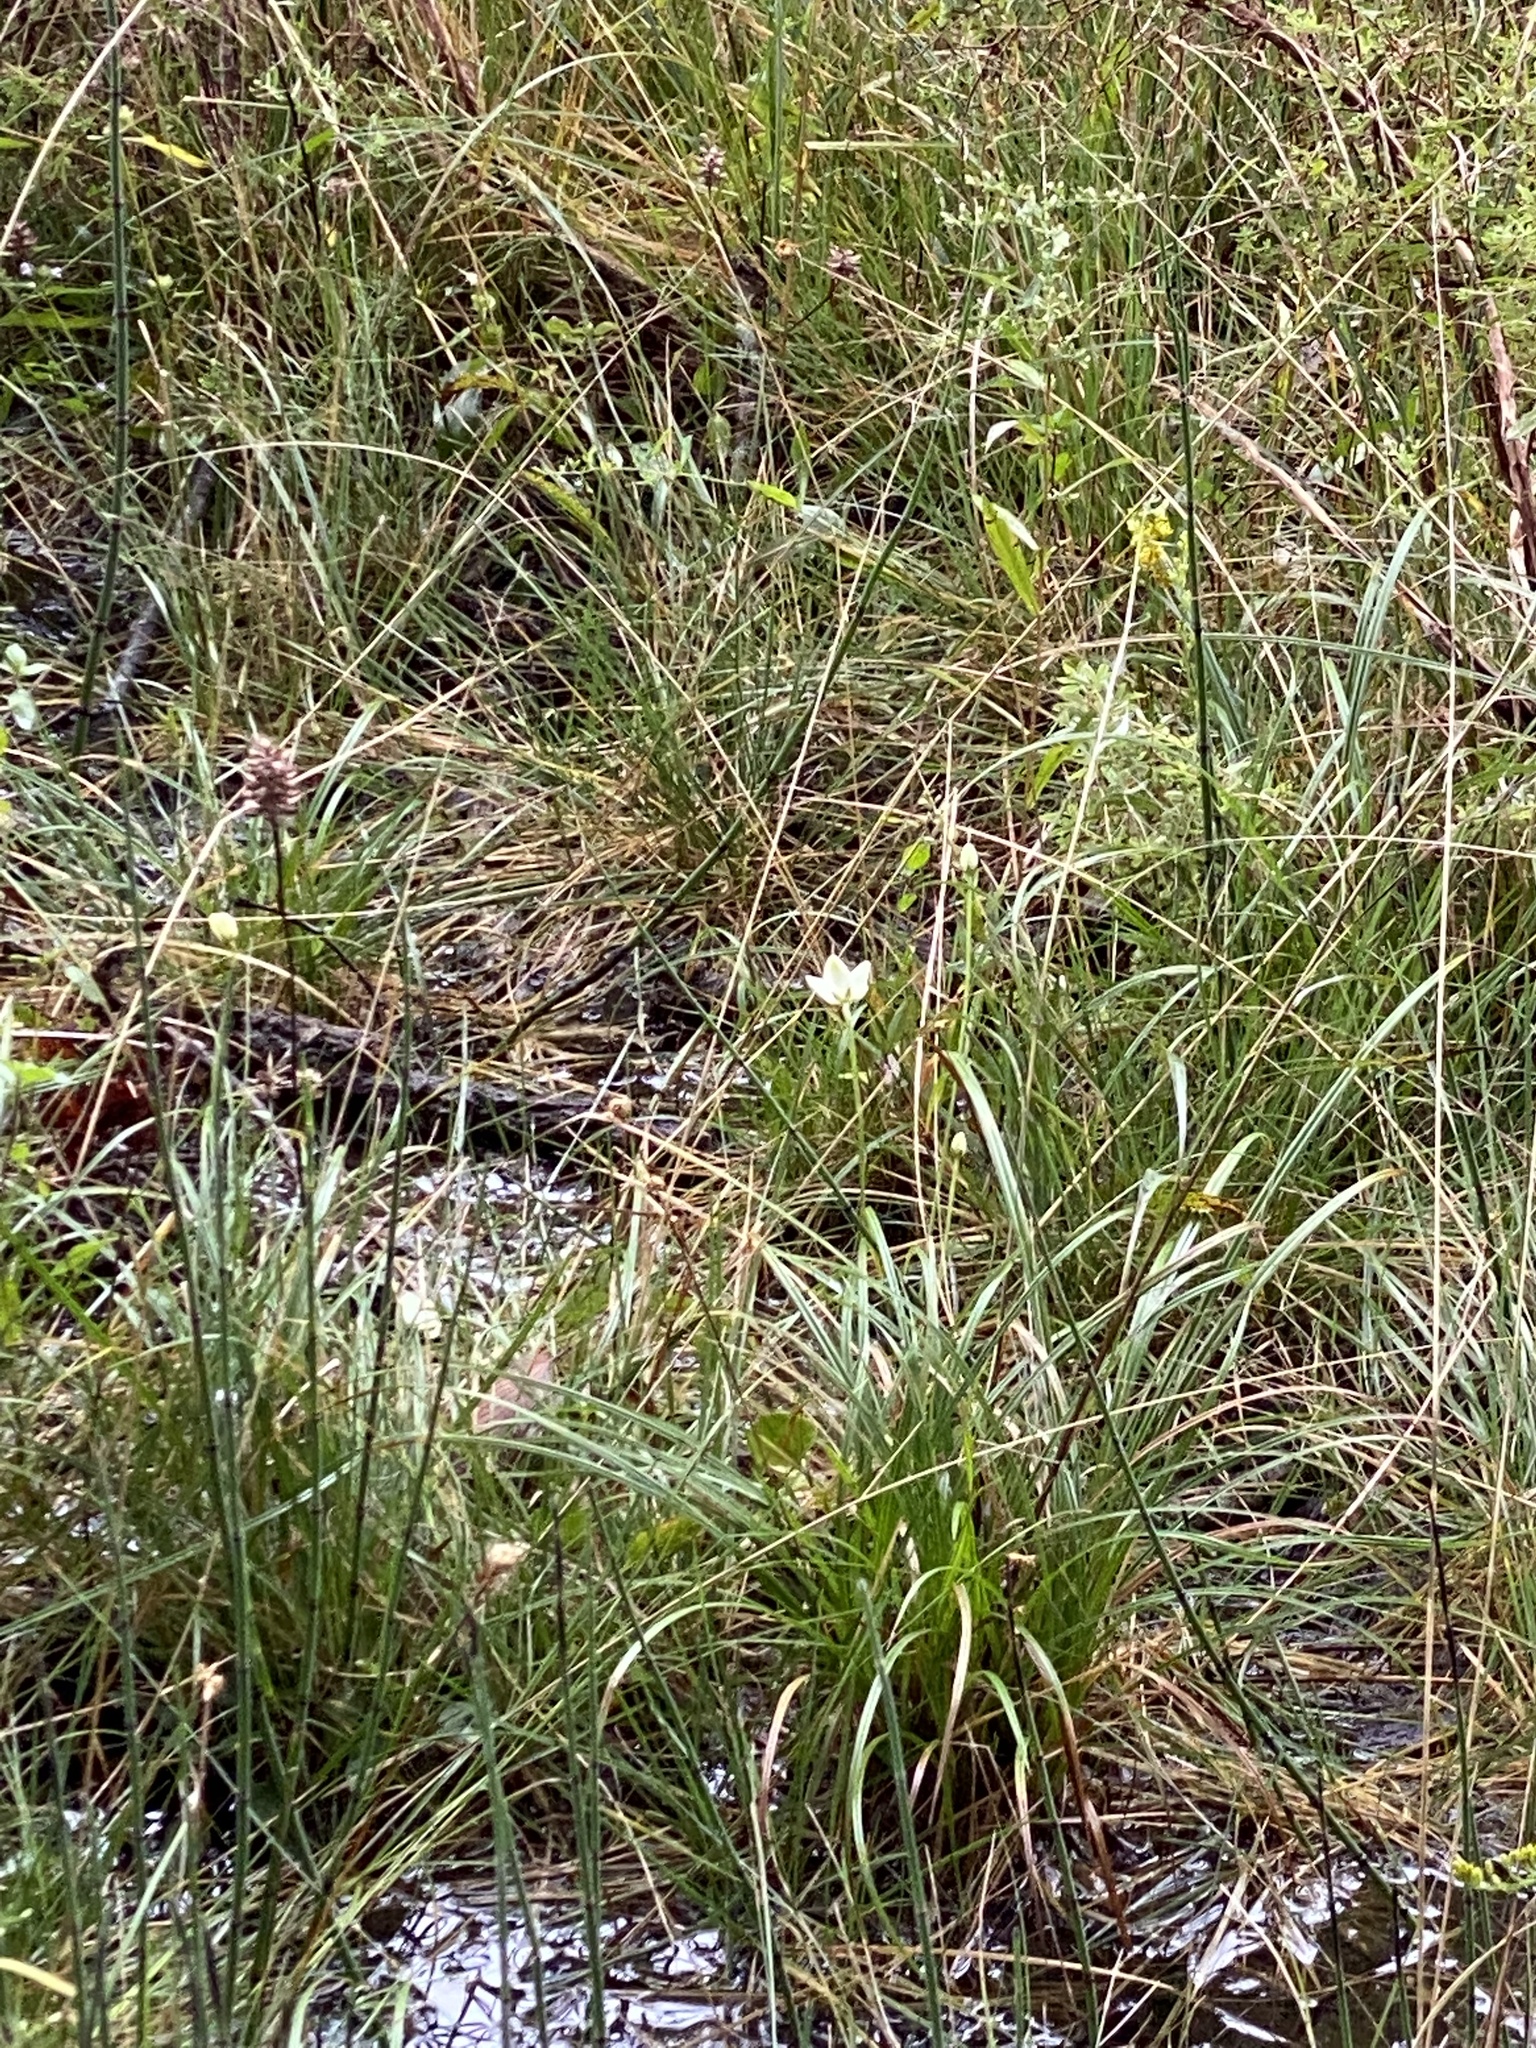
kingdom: Plantae
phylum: Tracheophyta
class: Magnoliopsida
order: Celastrales
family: Parnassiaceae
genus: Parnassia
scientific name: Parnassia glauca
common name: American grass-of-parnassus
